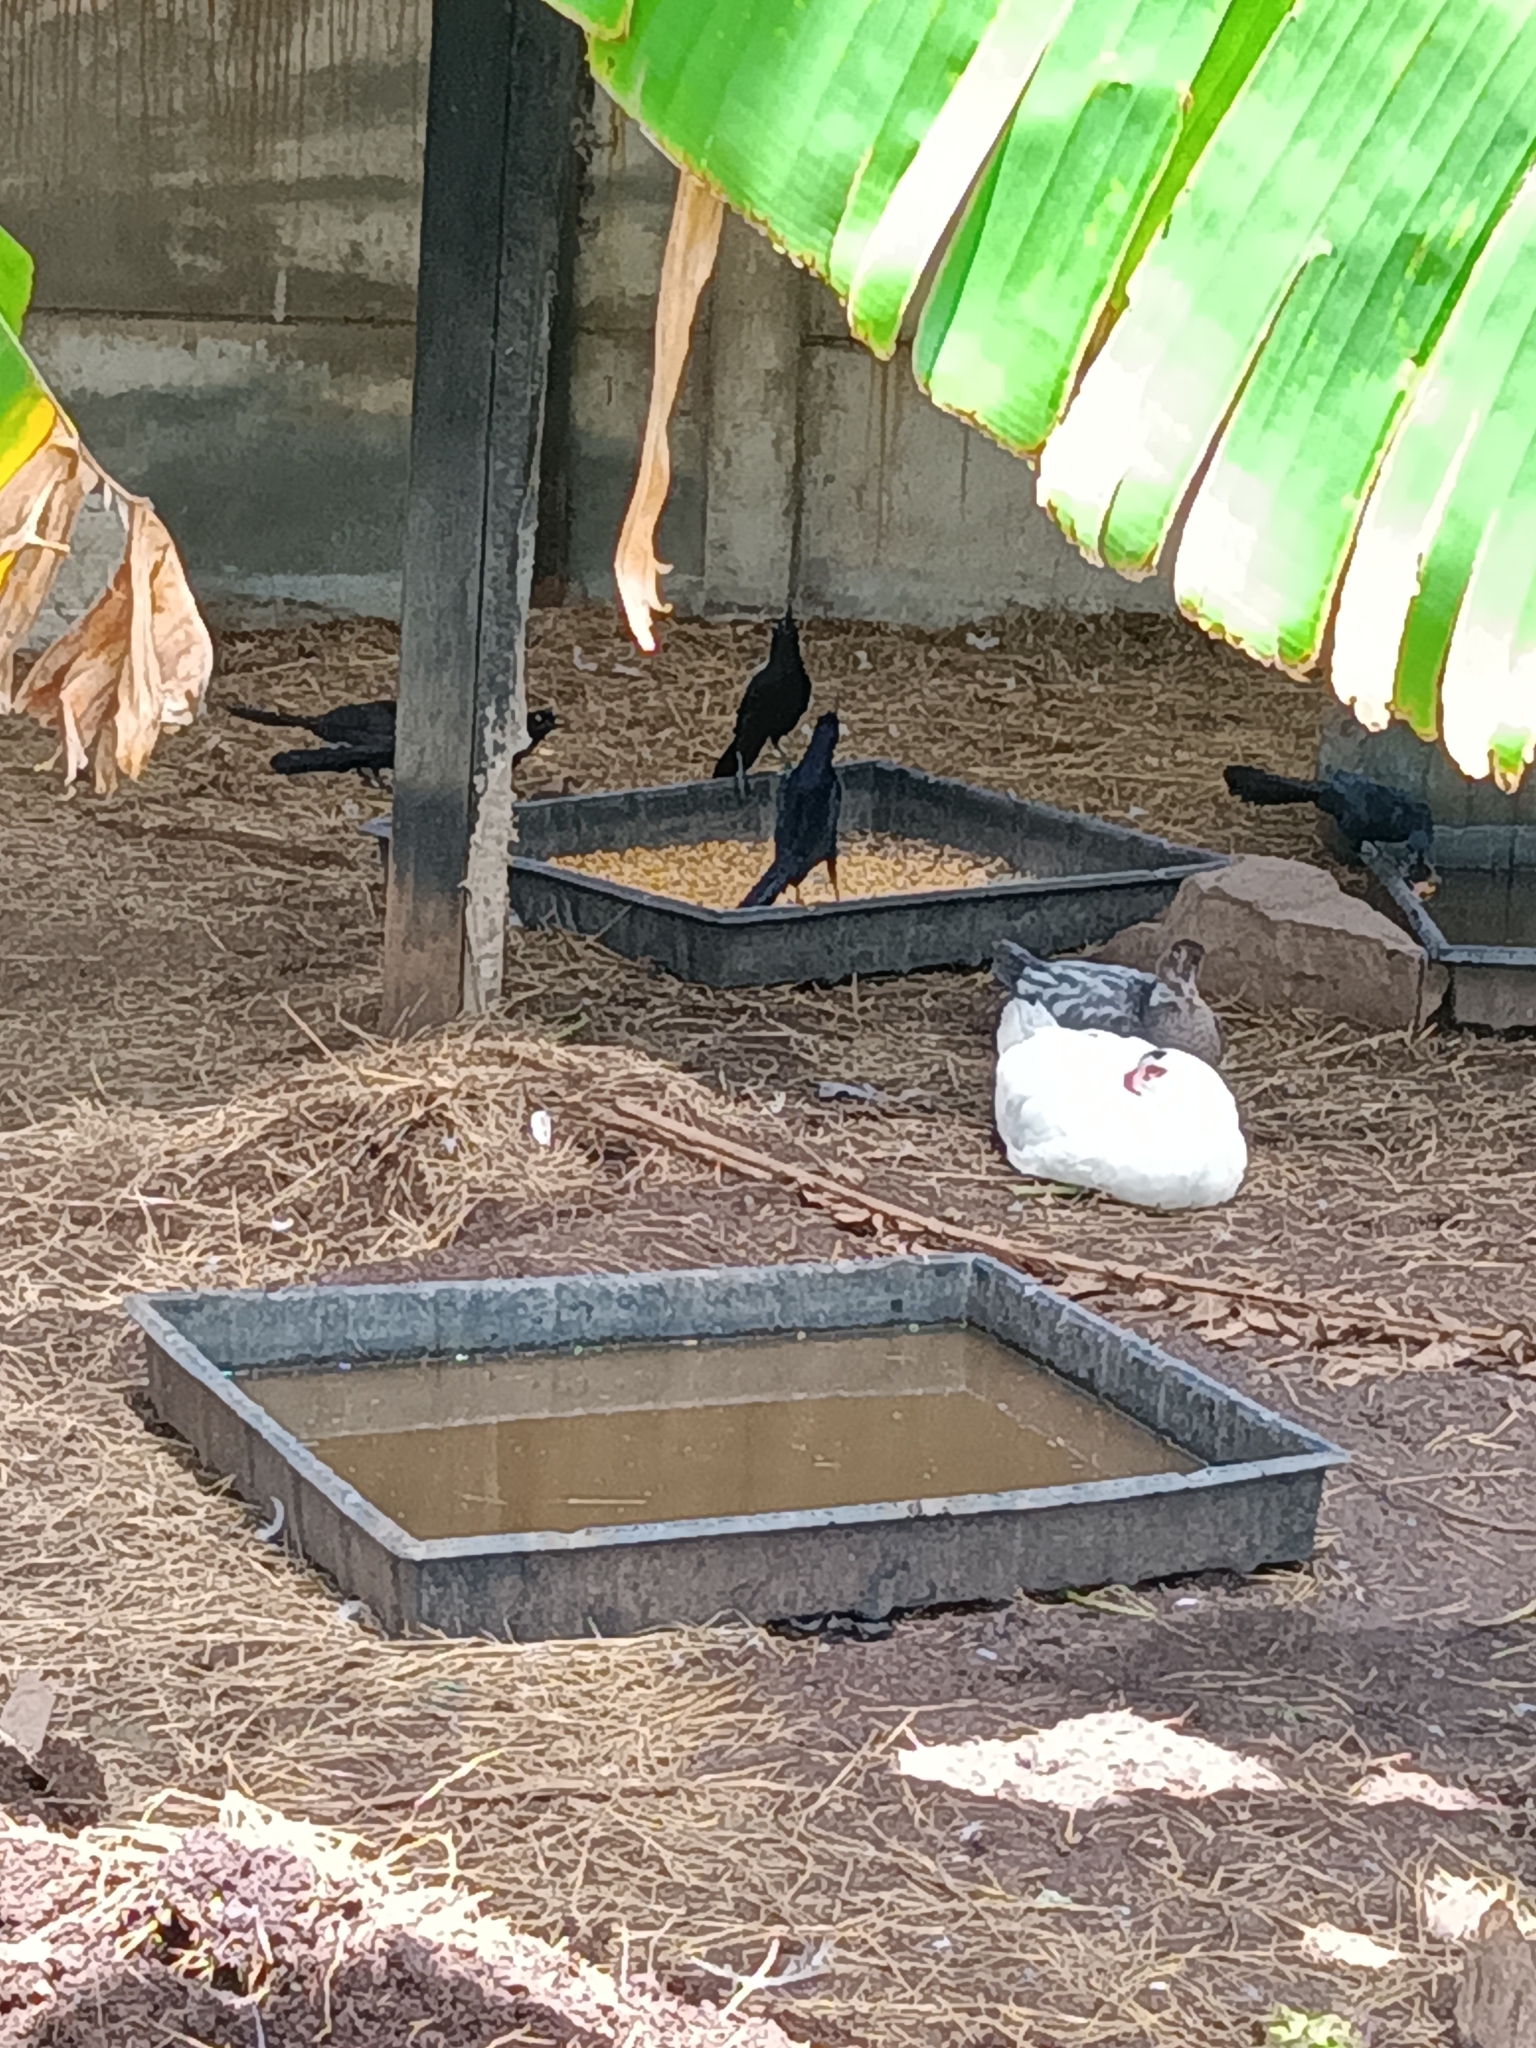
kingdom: Animalia
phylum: Chordata
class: Aves
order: Passeriformes
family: Icteridae
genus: Quiscalus
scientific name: Quiscalus mexicanus
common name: Great-tailed grackle
